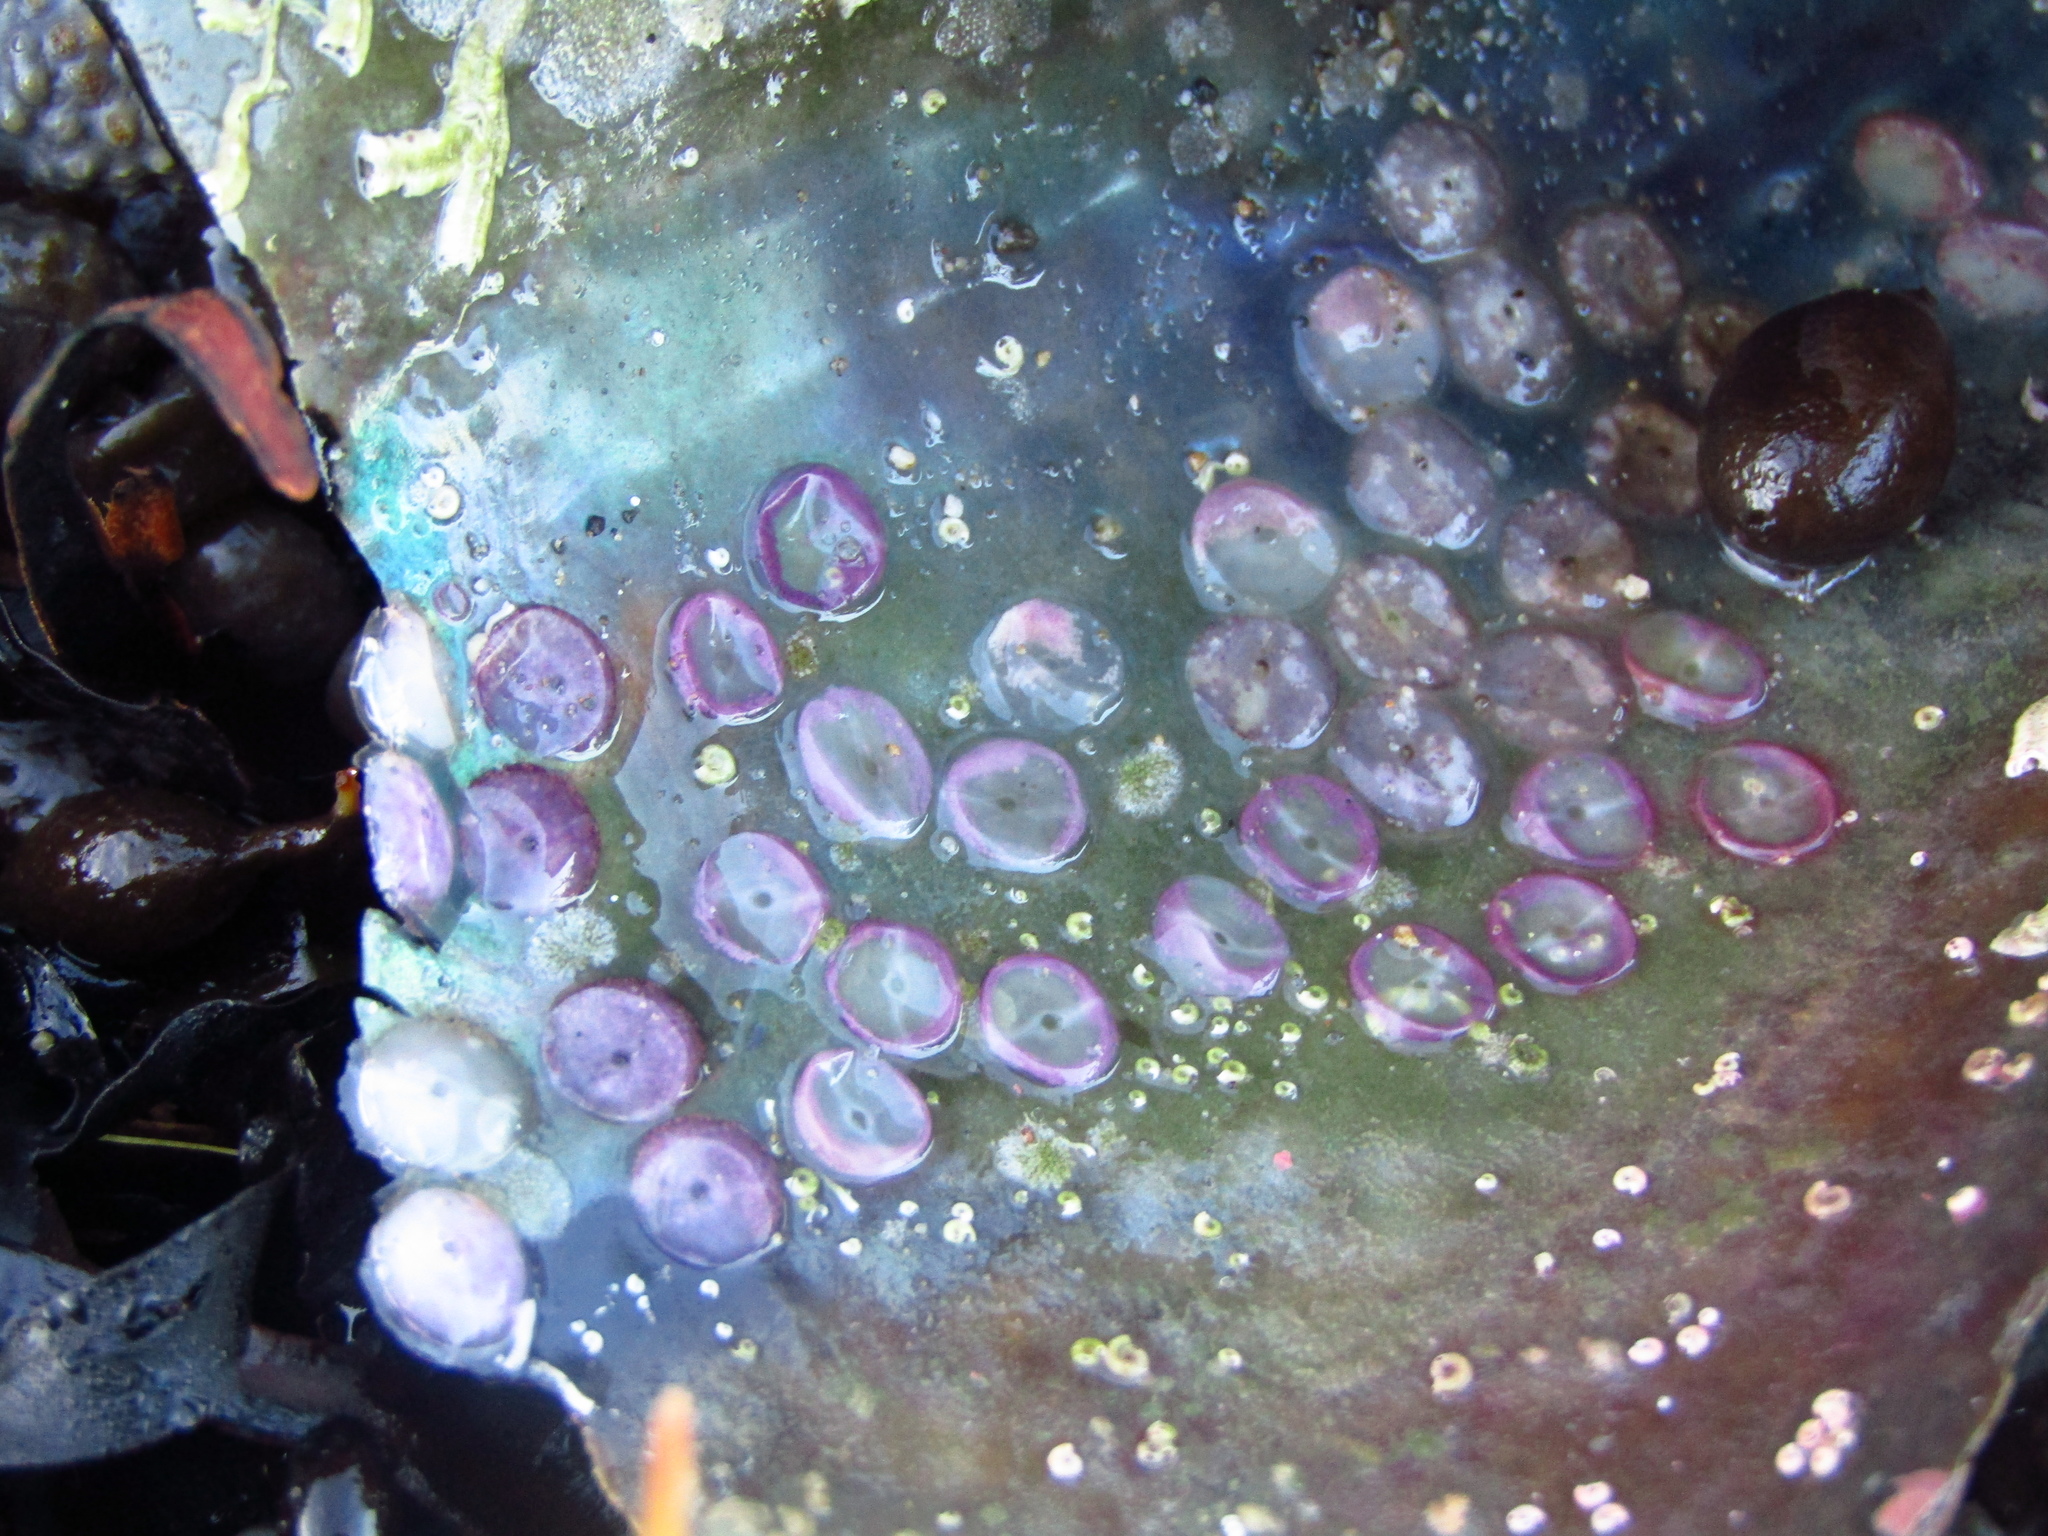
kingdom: Animalia
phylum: Mollusca
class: Gastropoda
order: Neogastropoda
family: Muricidae
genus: Zeatrophon
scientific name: Zeatrophon ambiguus
